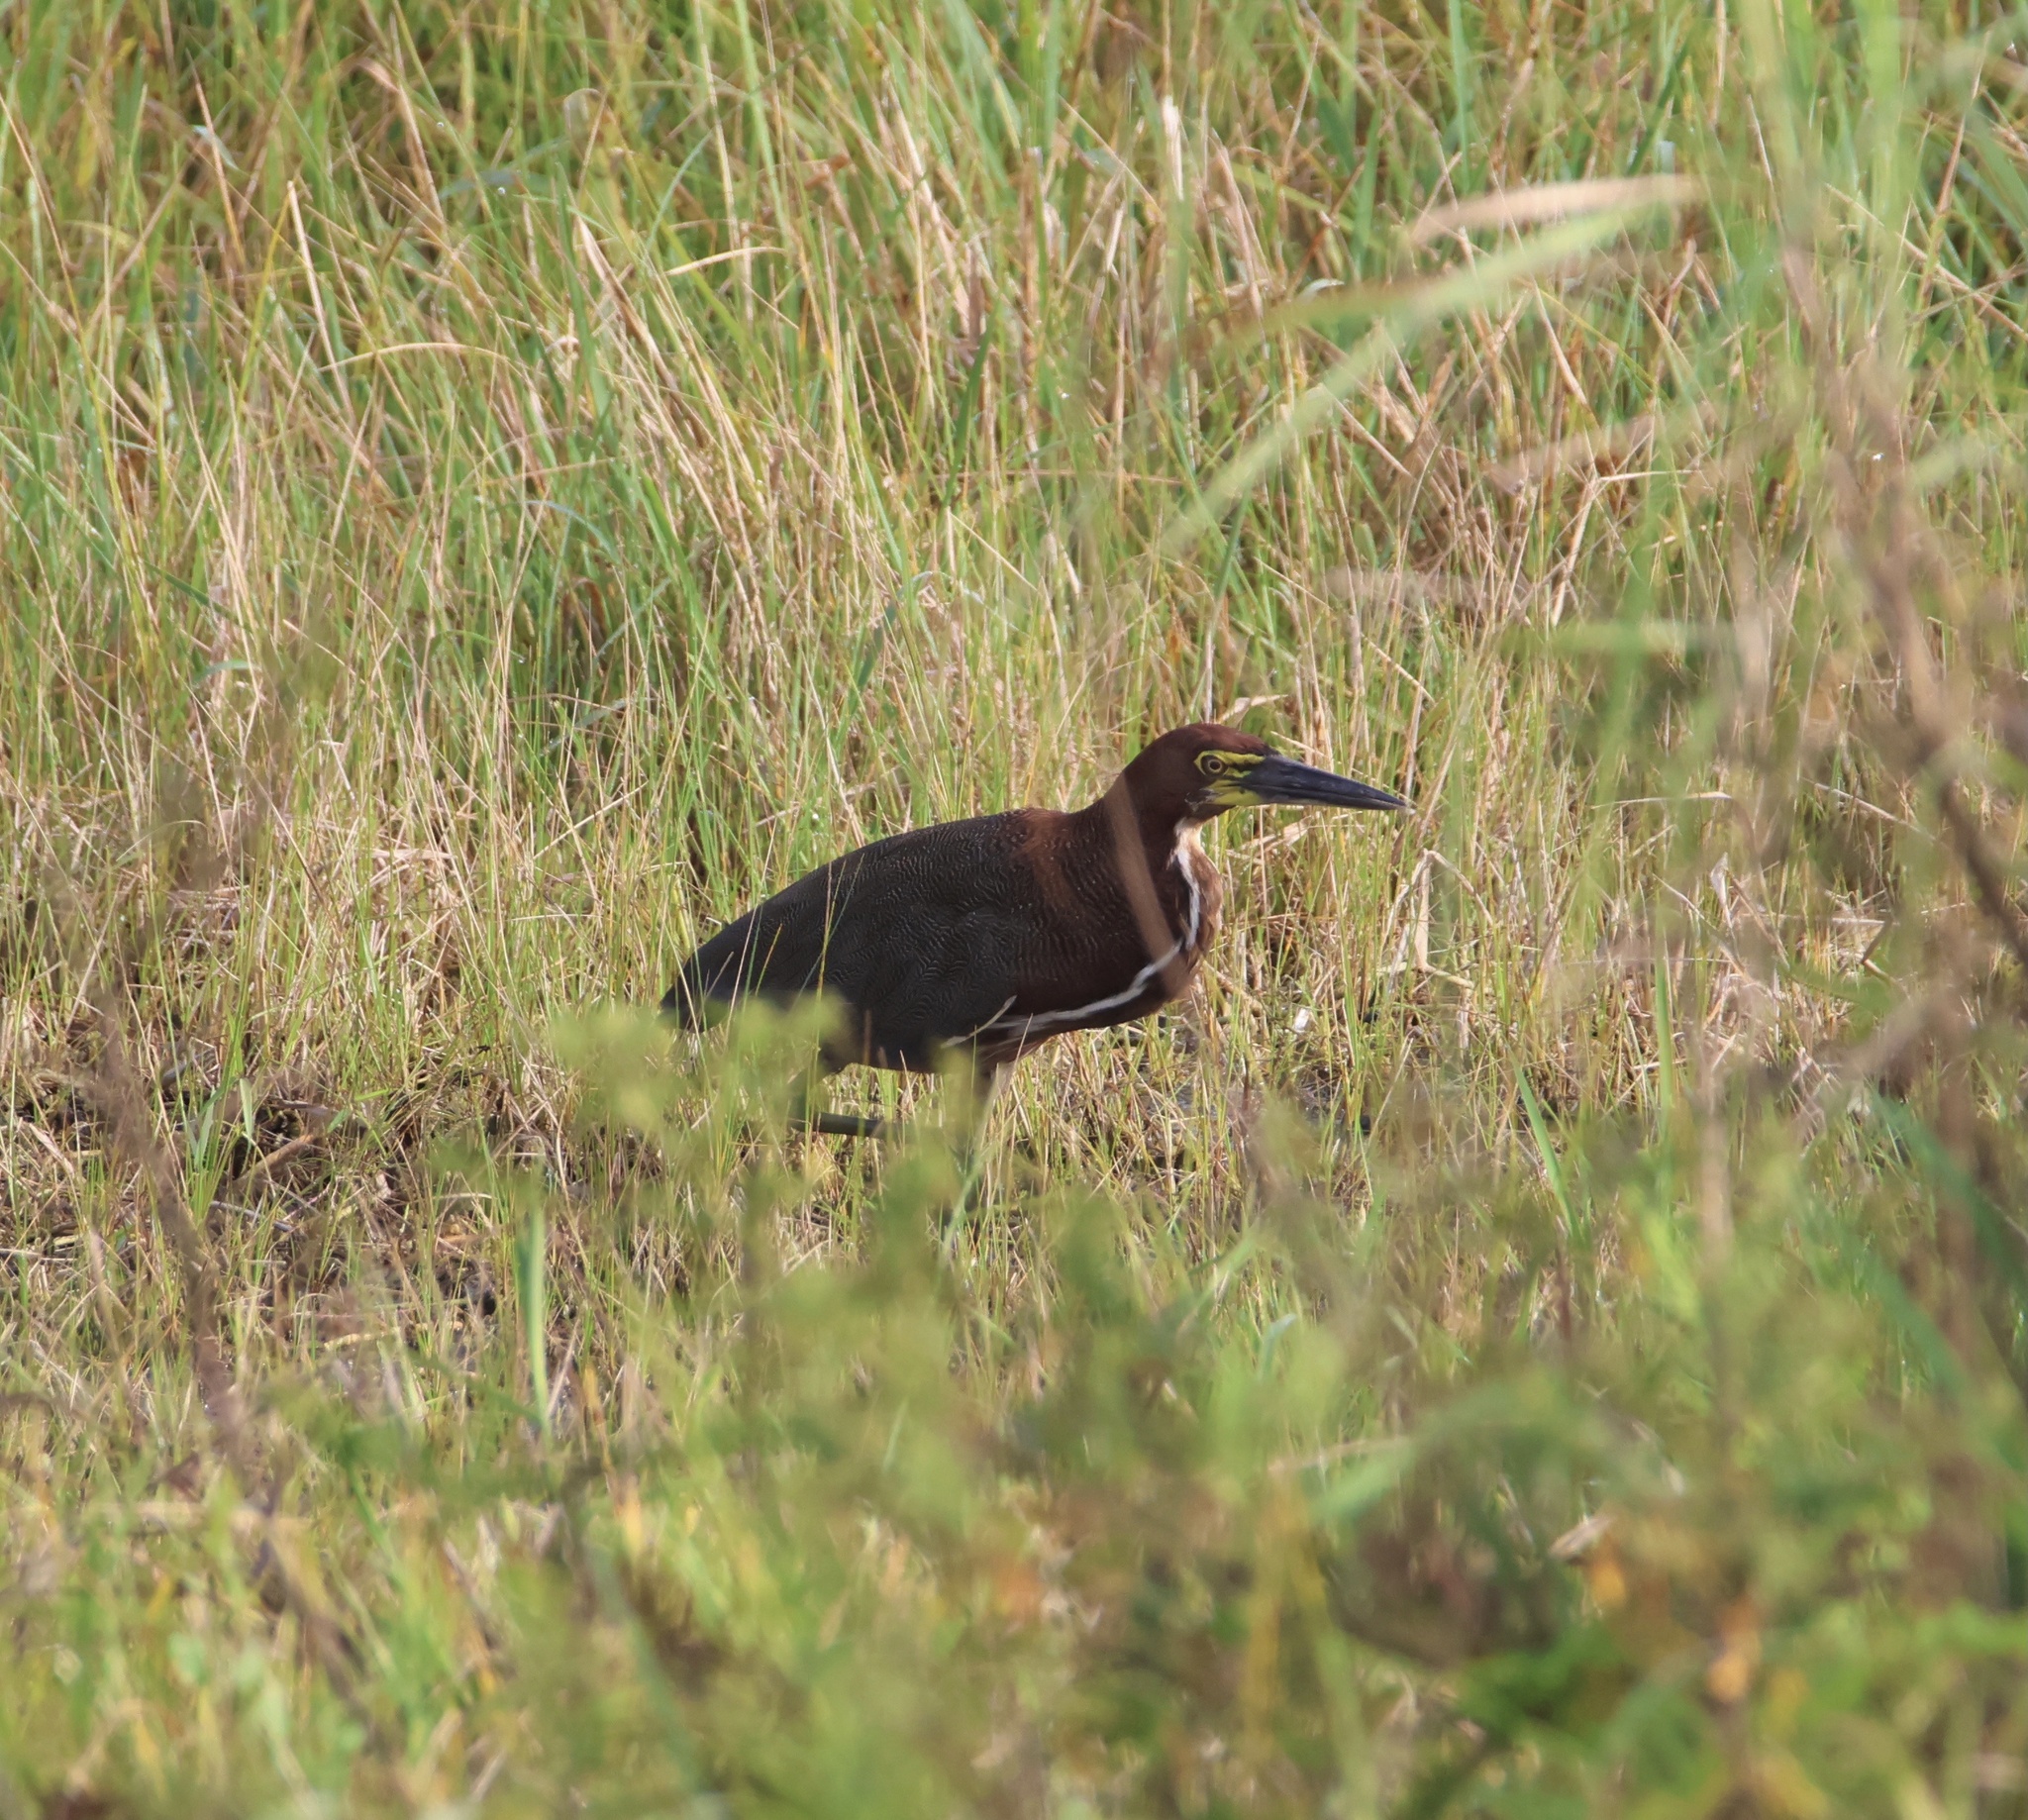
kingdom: Animalia
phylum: Chordata
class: Aves
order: Pelecaniformes
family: Ardeidae
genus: Tigrisoma
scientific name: Tigrisoma lineatum
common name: Rufescent tiger-heron
